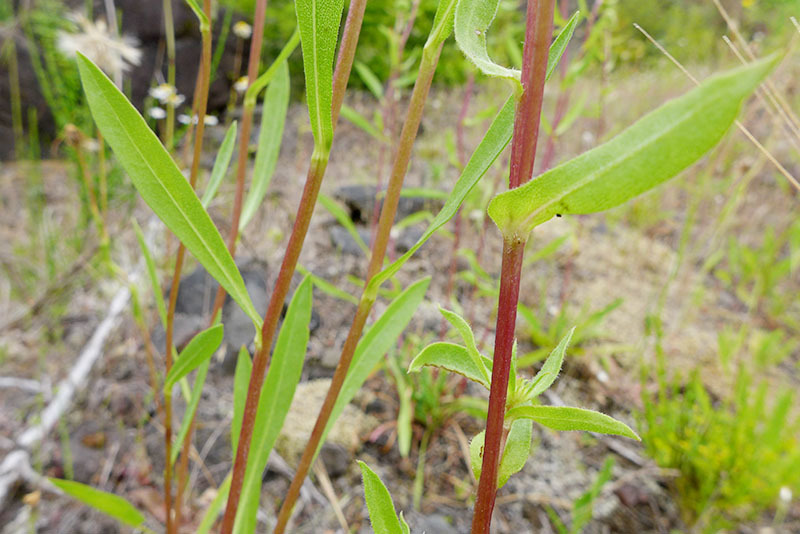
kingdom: Plantae
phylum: Tracheophyta
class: Magnoliopsida
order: Asterales
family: Asteraceae
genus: Grindelia
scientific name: Grindelia hirsutula
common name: Hairy gumweed
